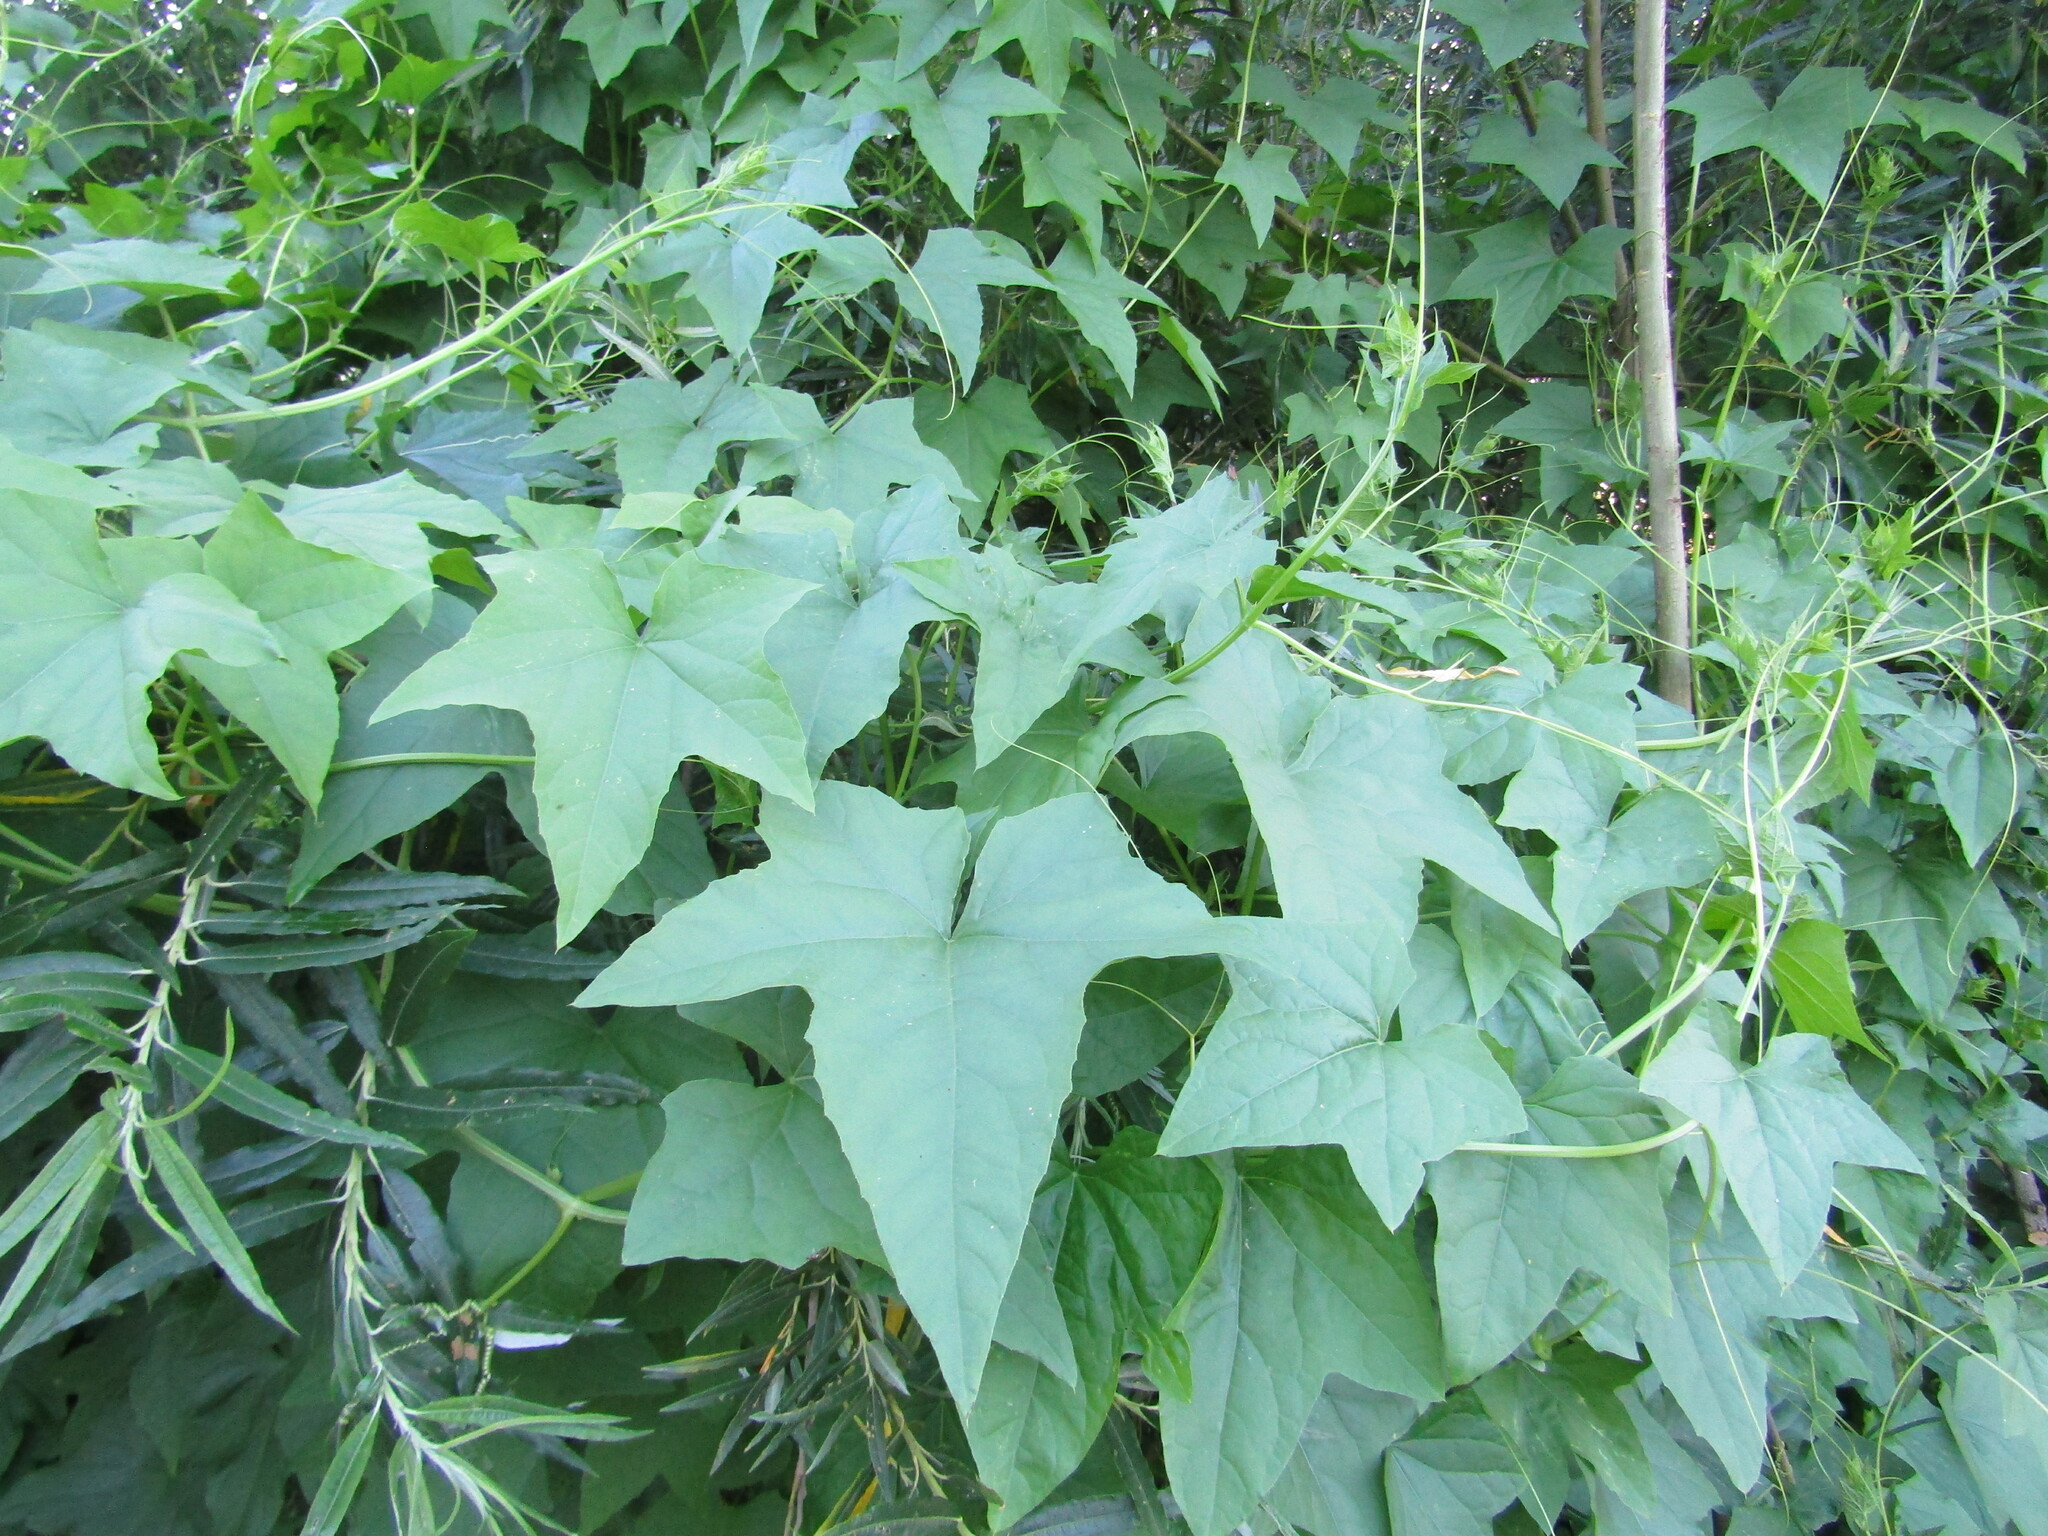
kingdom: Plantae
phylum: Tracheophyta
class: Magnoliopsida
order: Cucurbitales
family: Cucurbitaceae
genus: Echinocystis
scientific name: Echinocystis lobata
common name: Wild cucumber
